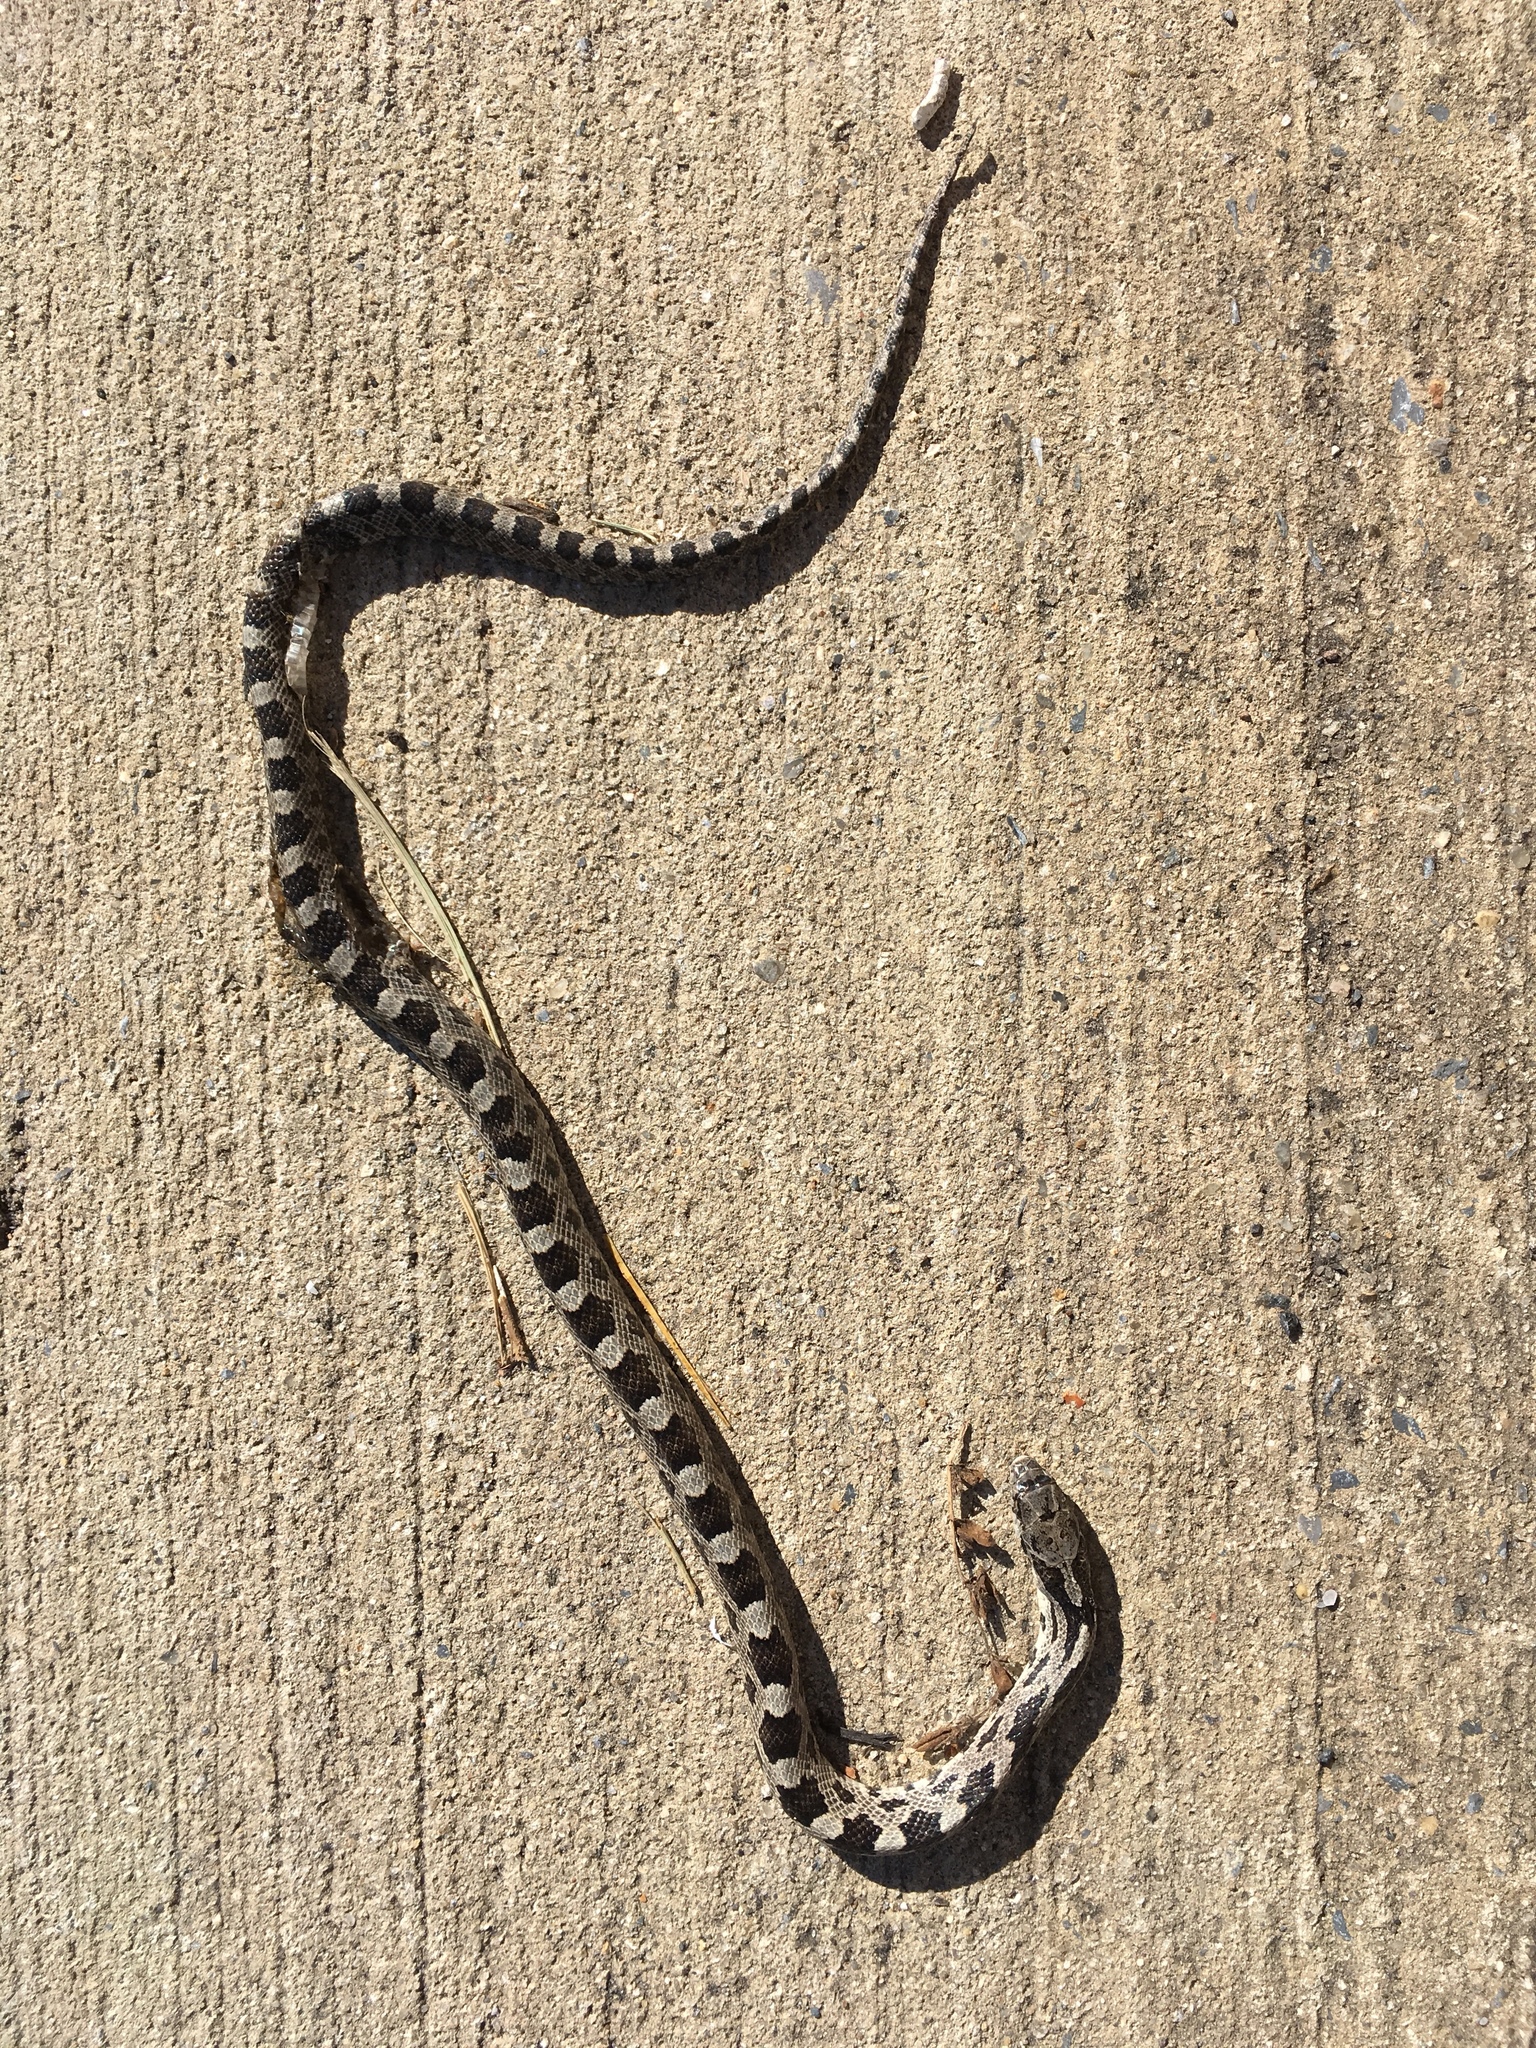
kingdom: Animalia
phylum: Chordata
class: Squamata
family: Colubridae
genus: Pantherophis
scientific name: Pantherophis alleghaniensis
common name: Eastern rat snake
